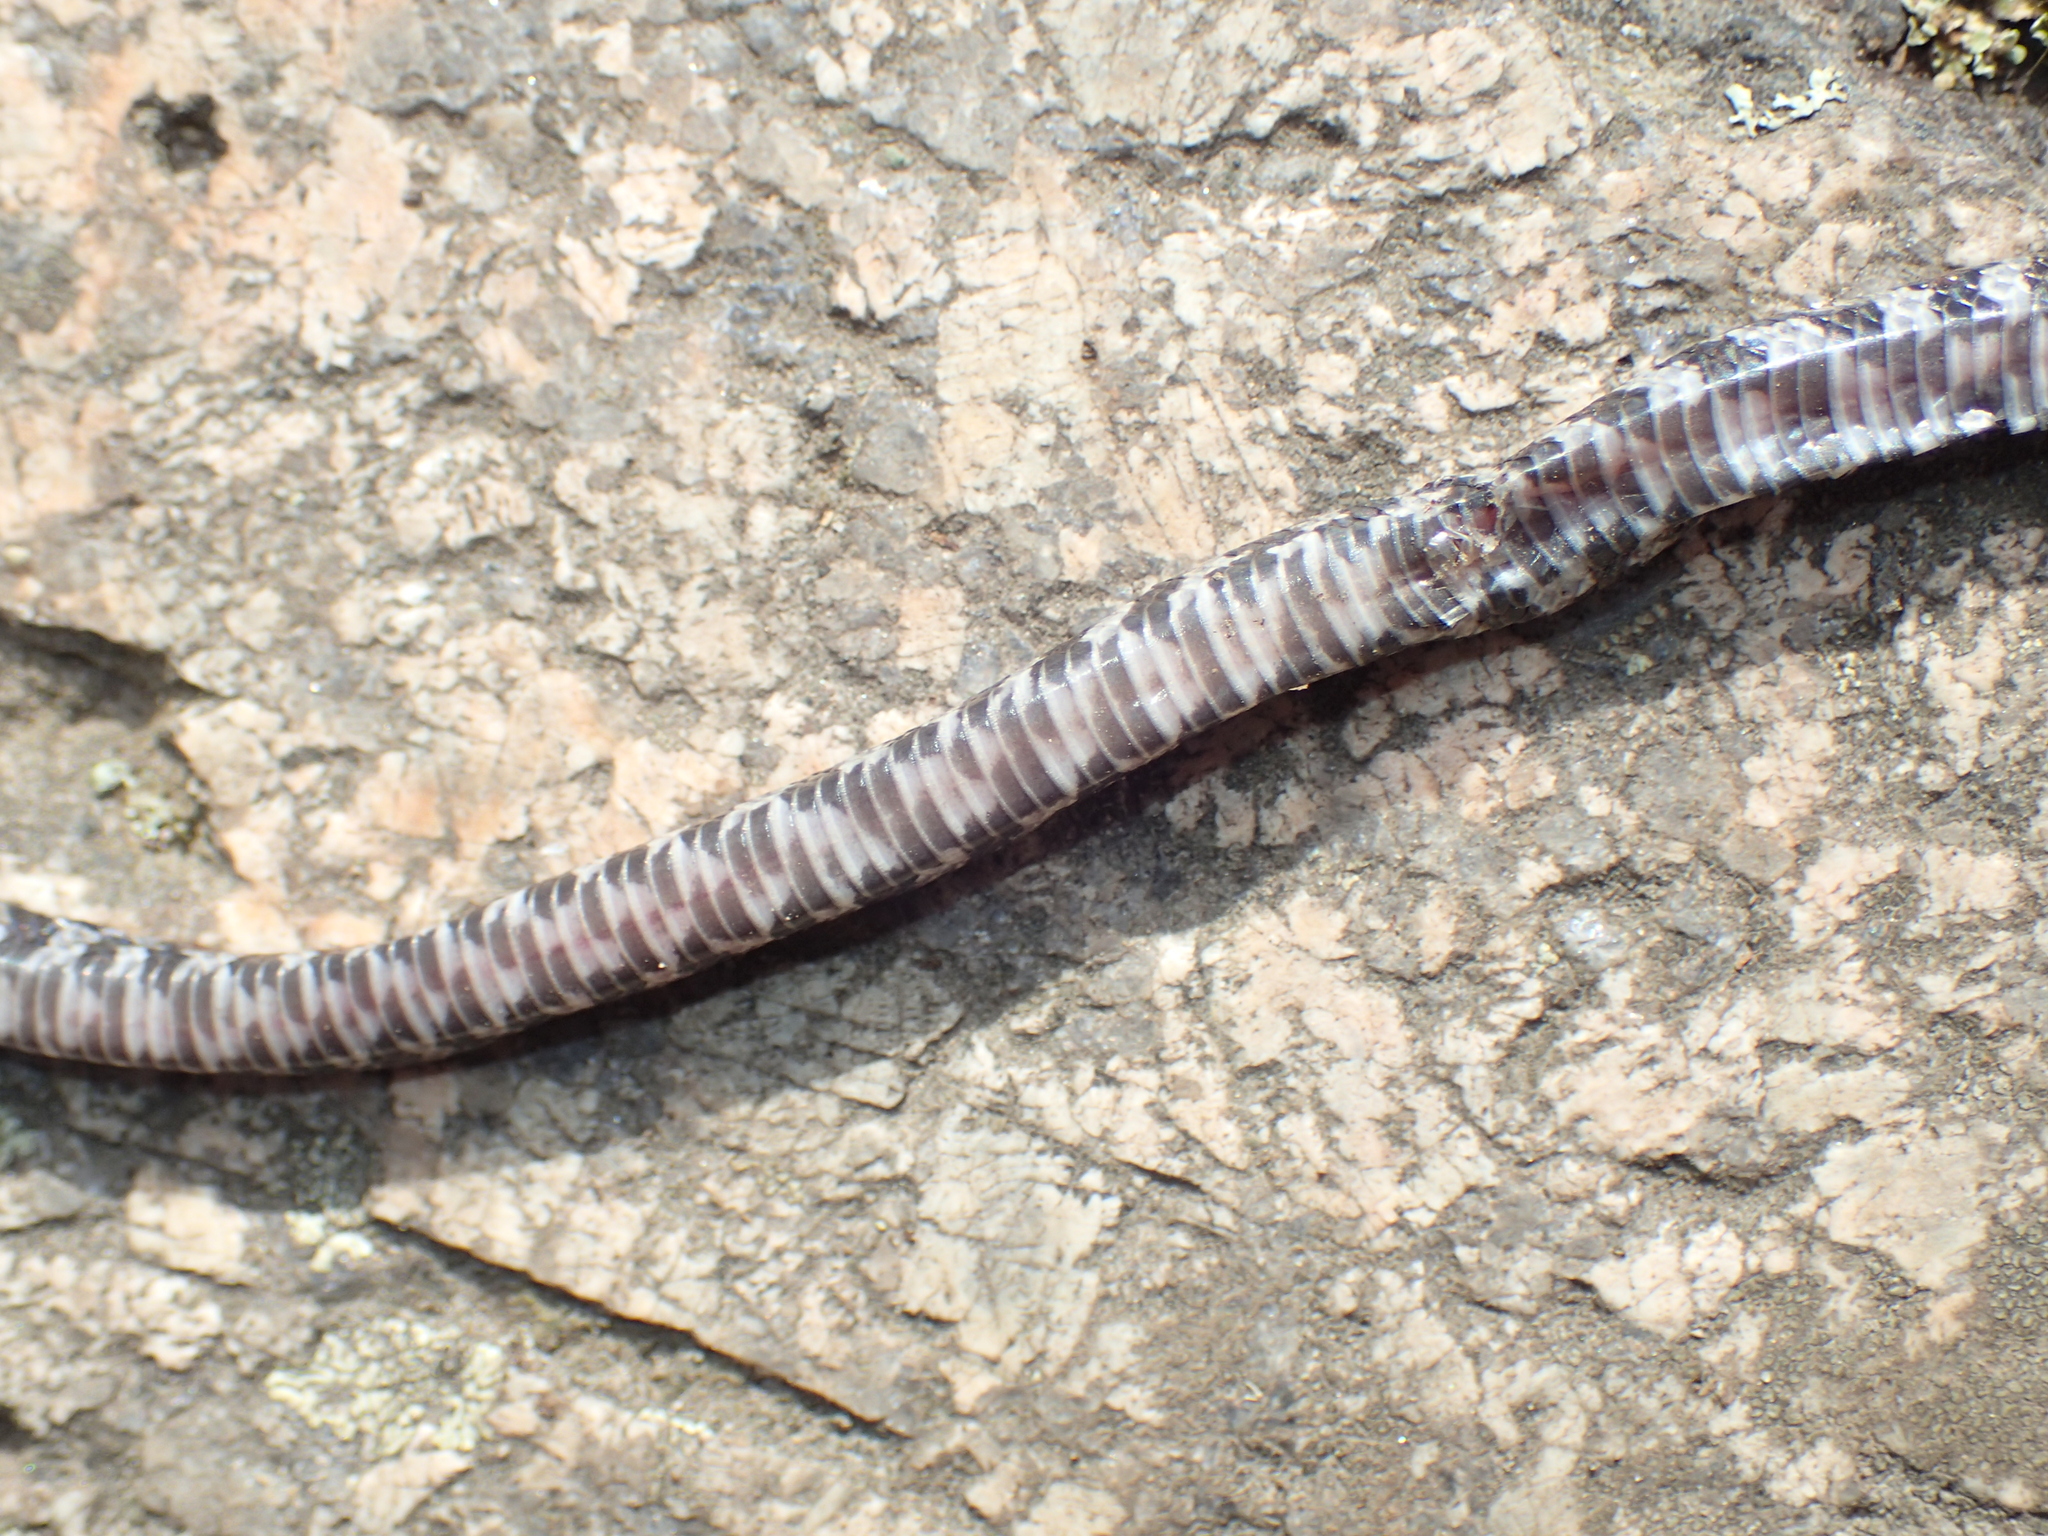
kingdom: Animalia
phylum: Chordata
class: Squamata
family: Colubridae
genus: Lampropeltis
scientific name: Lampropeltis triangulum
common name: Eastern milksnake
